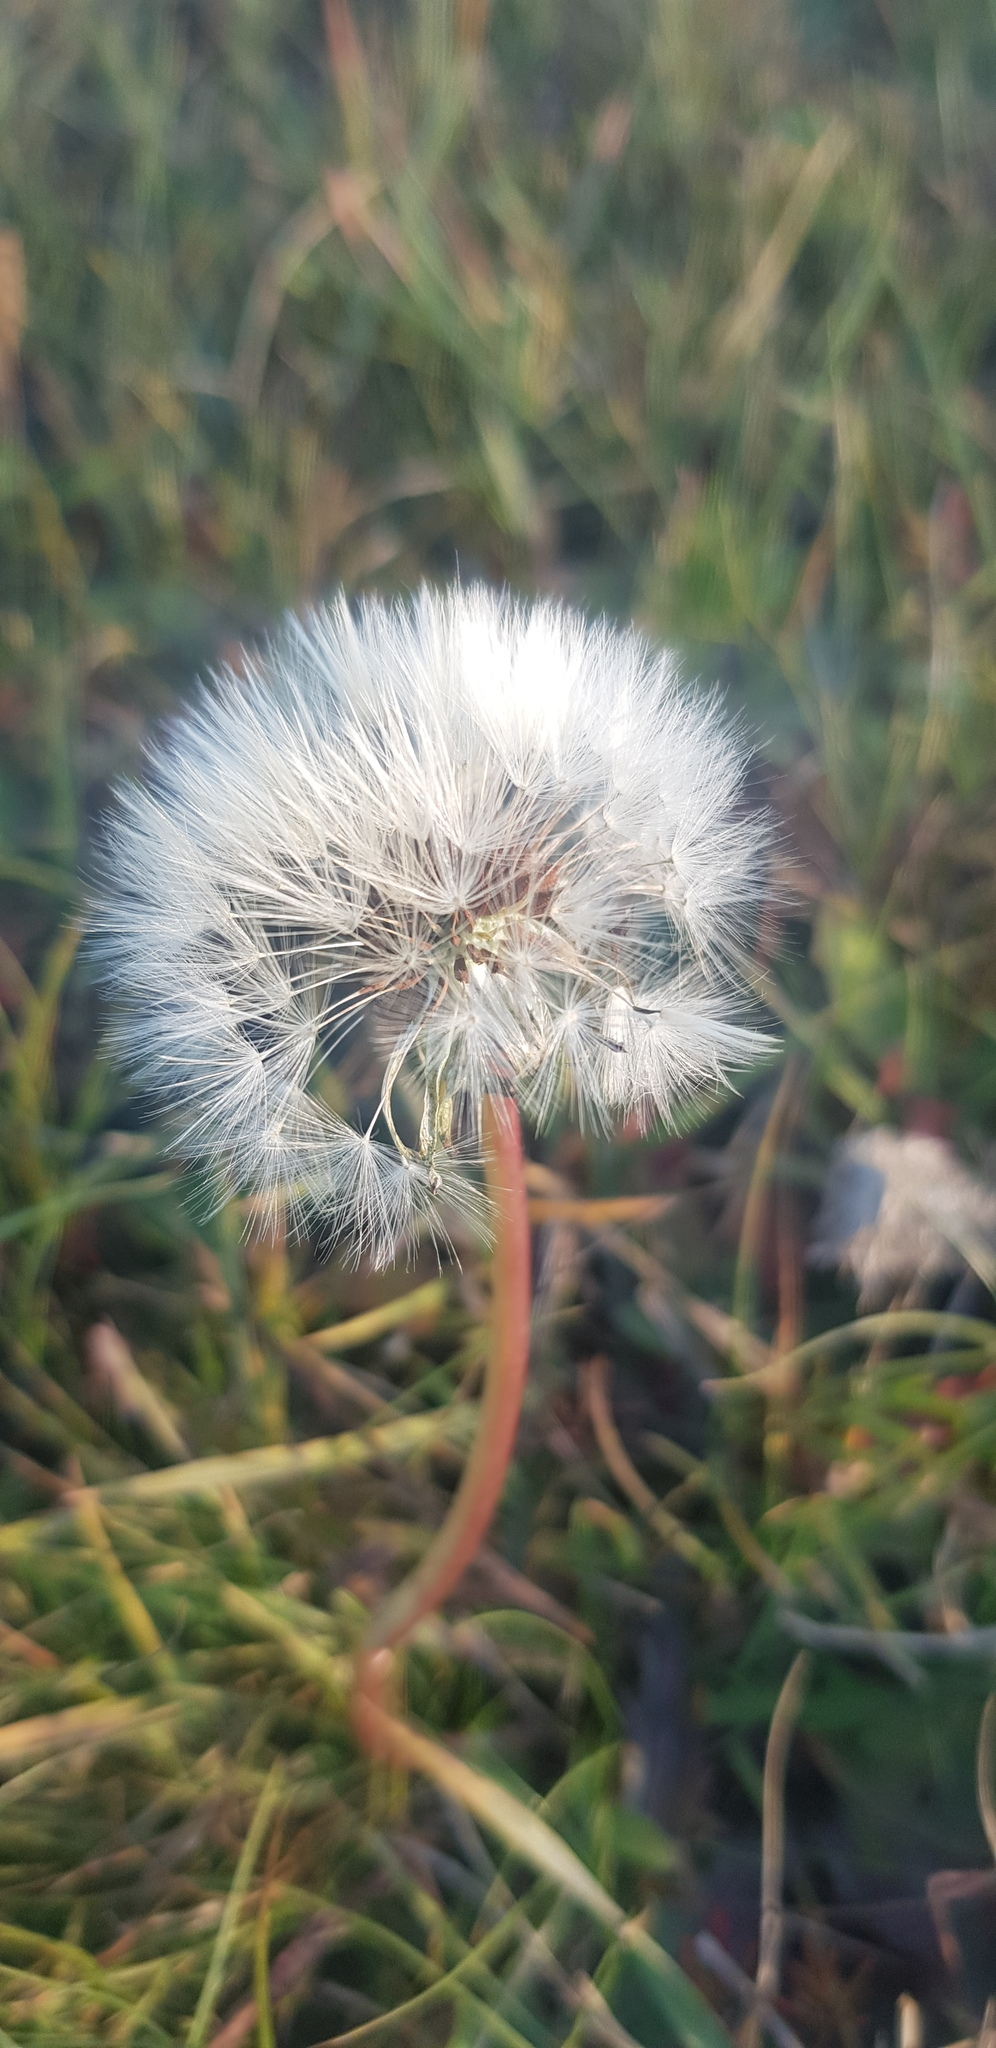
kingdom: Plantae
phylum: Tracheophyta
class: Magnoliopsida
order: Asterales
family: Asteraceae
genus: Taraxacum
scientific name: Taraxacum officinale
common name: Common dandelion
